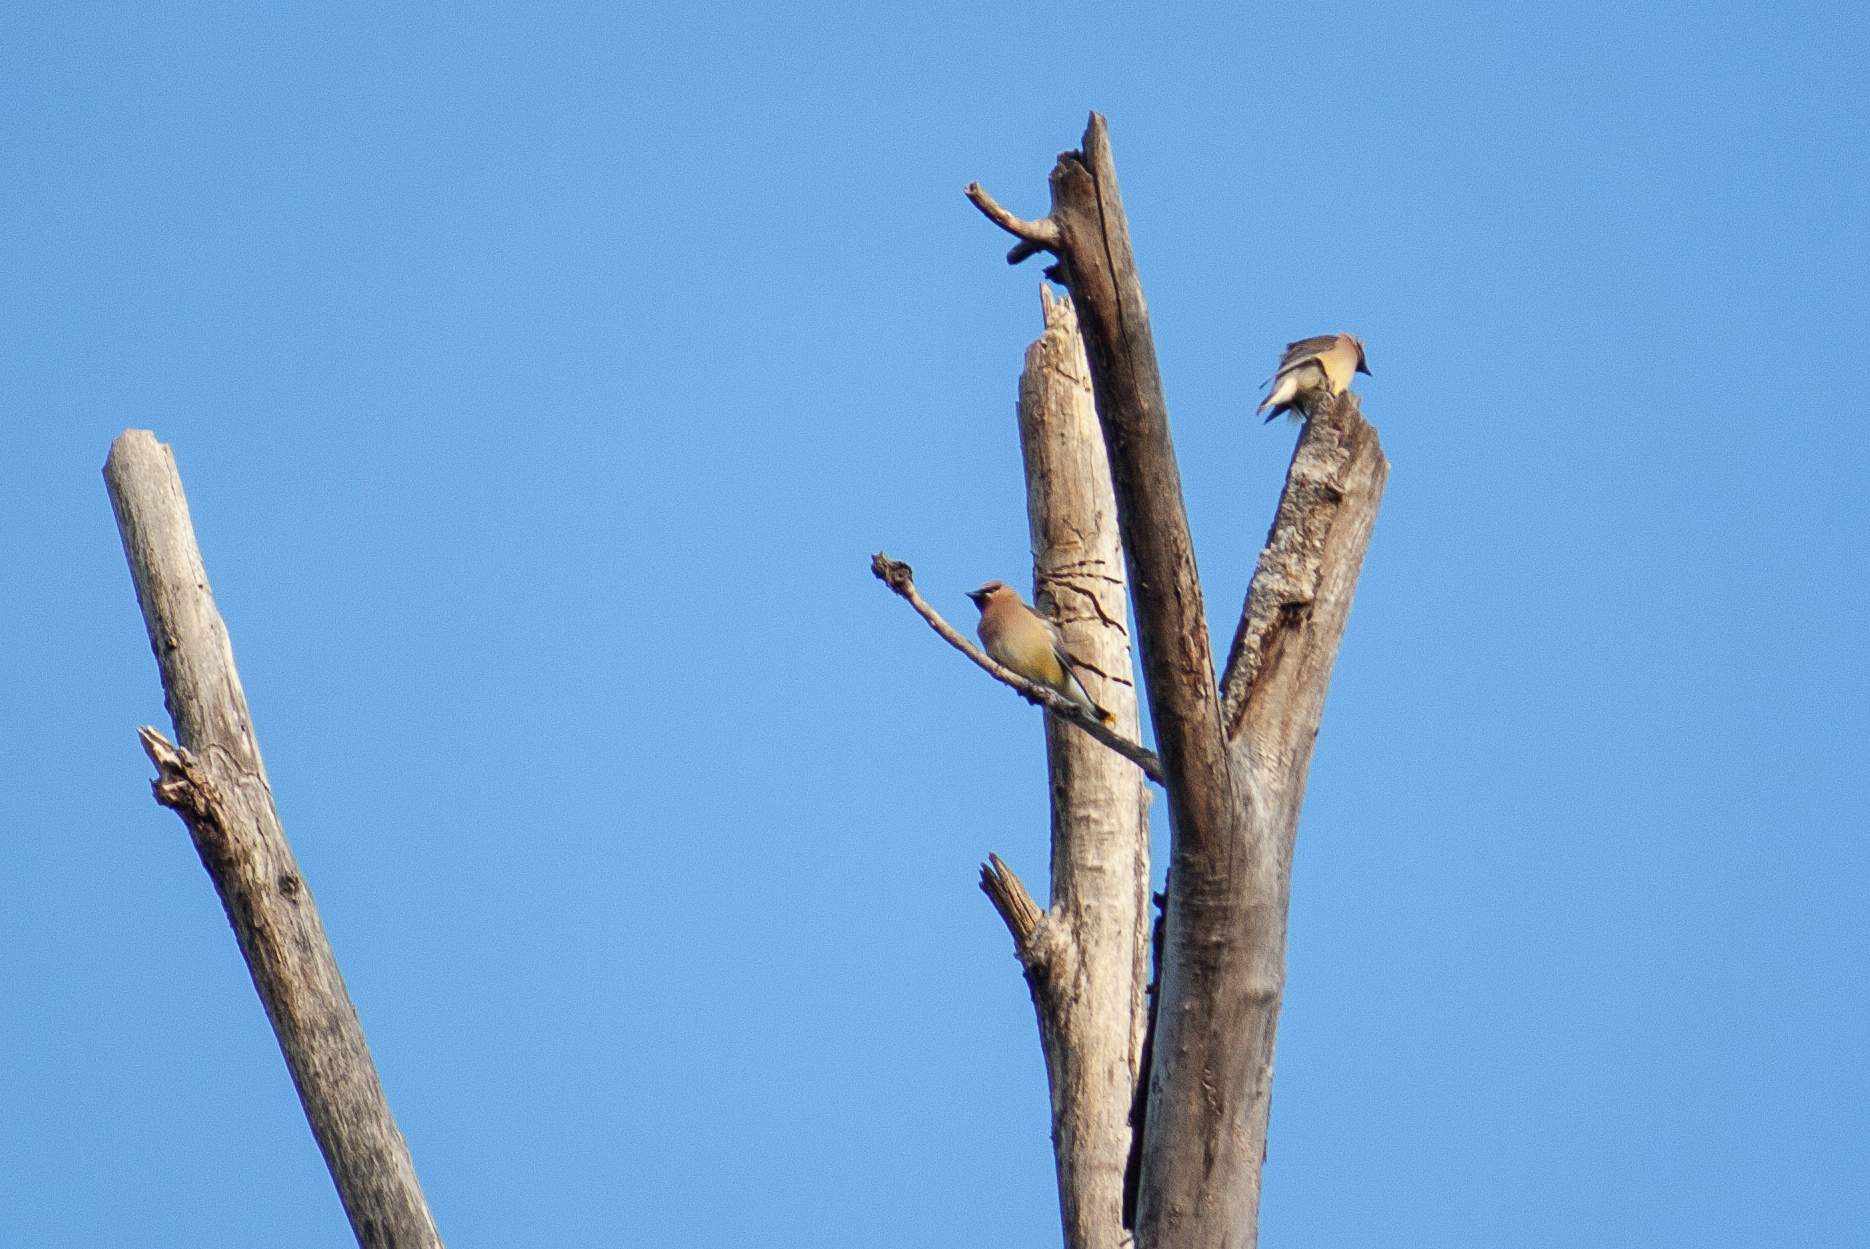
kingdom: Animalia
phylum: Chordata
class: Aves
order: Passeriformes
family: Bombycillidae
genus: Bombycilla
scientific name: Bombycilla cedrorum
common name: Cedar waxwing
